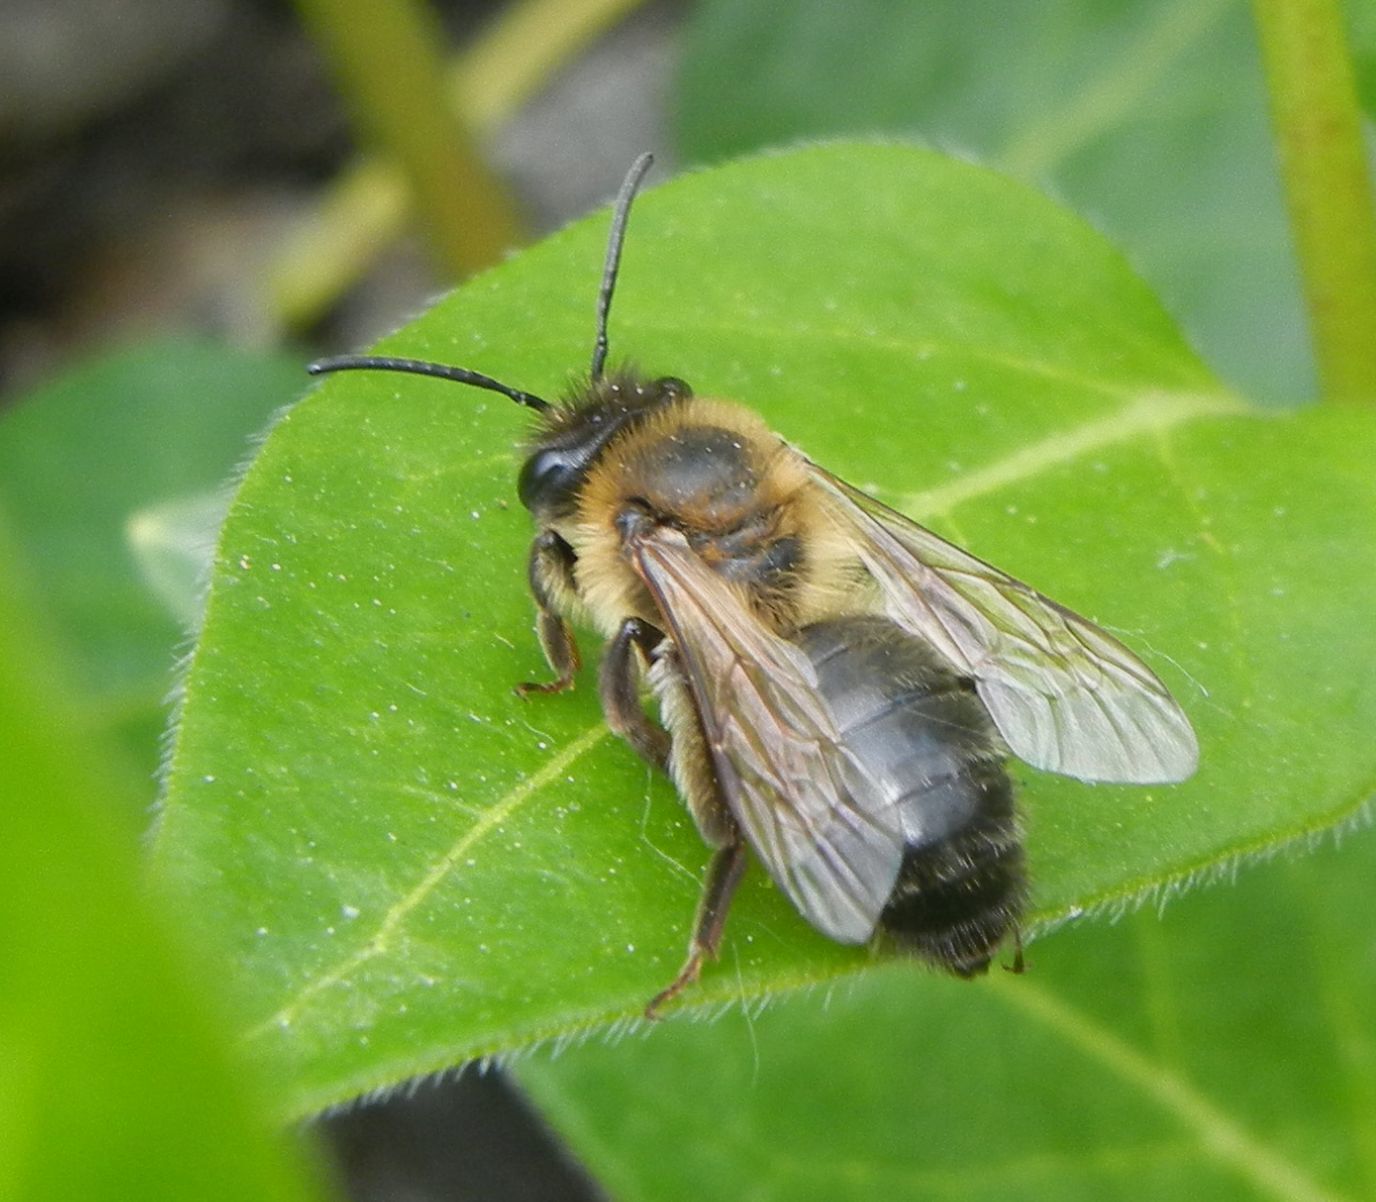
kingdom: Animalia
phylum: Arthropoda
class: Insecta
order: Hymenoptera
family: Andrenidae
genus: Andrena
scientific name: Andrena carantonica
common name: Chocolate mining bee
